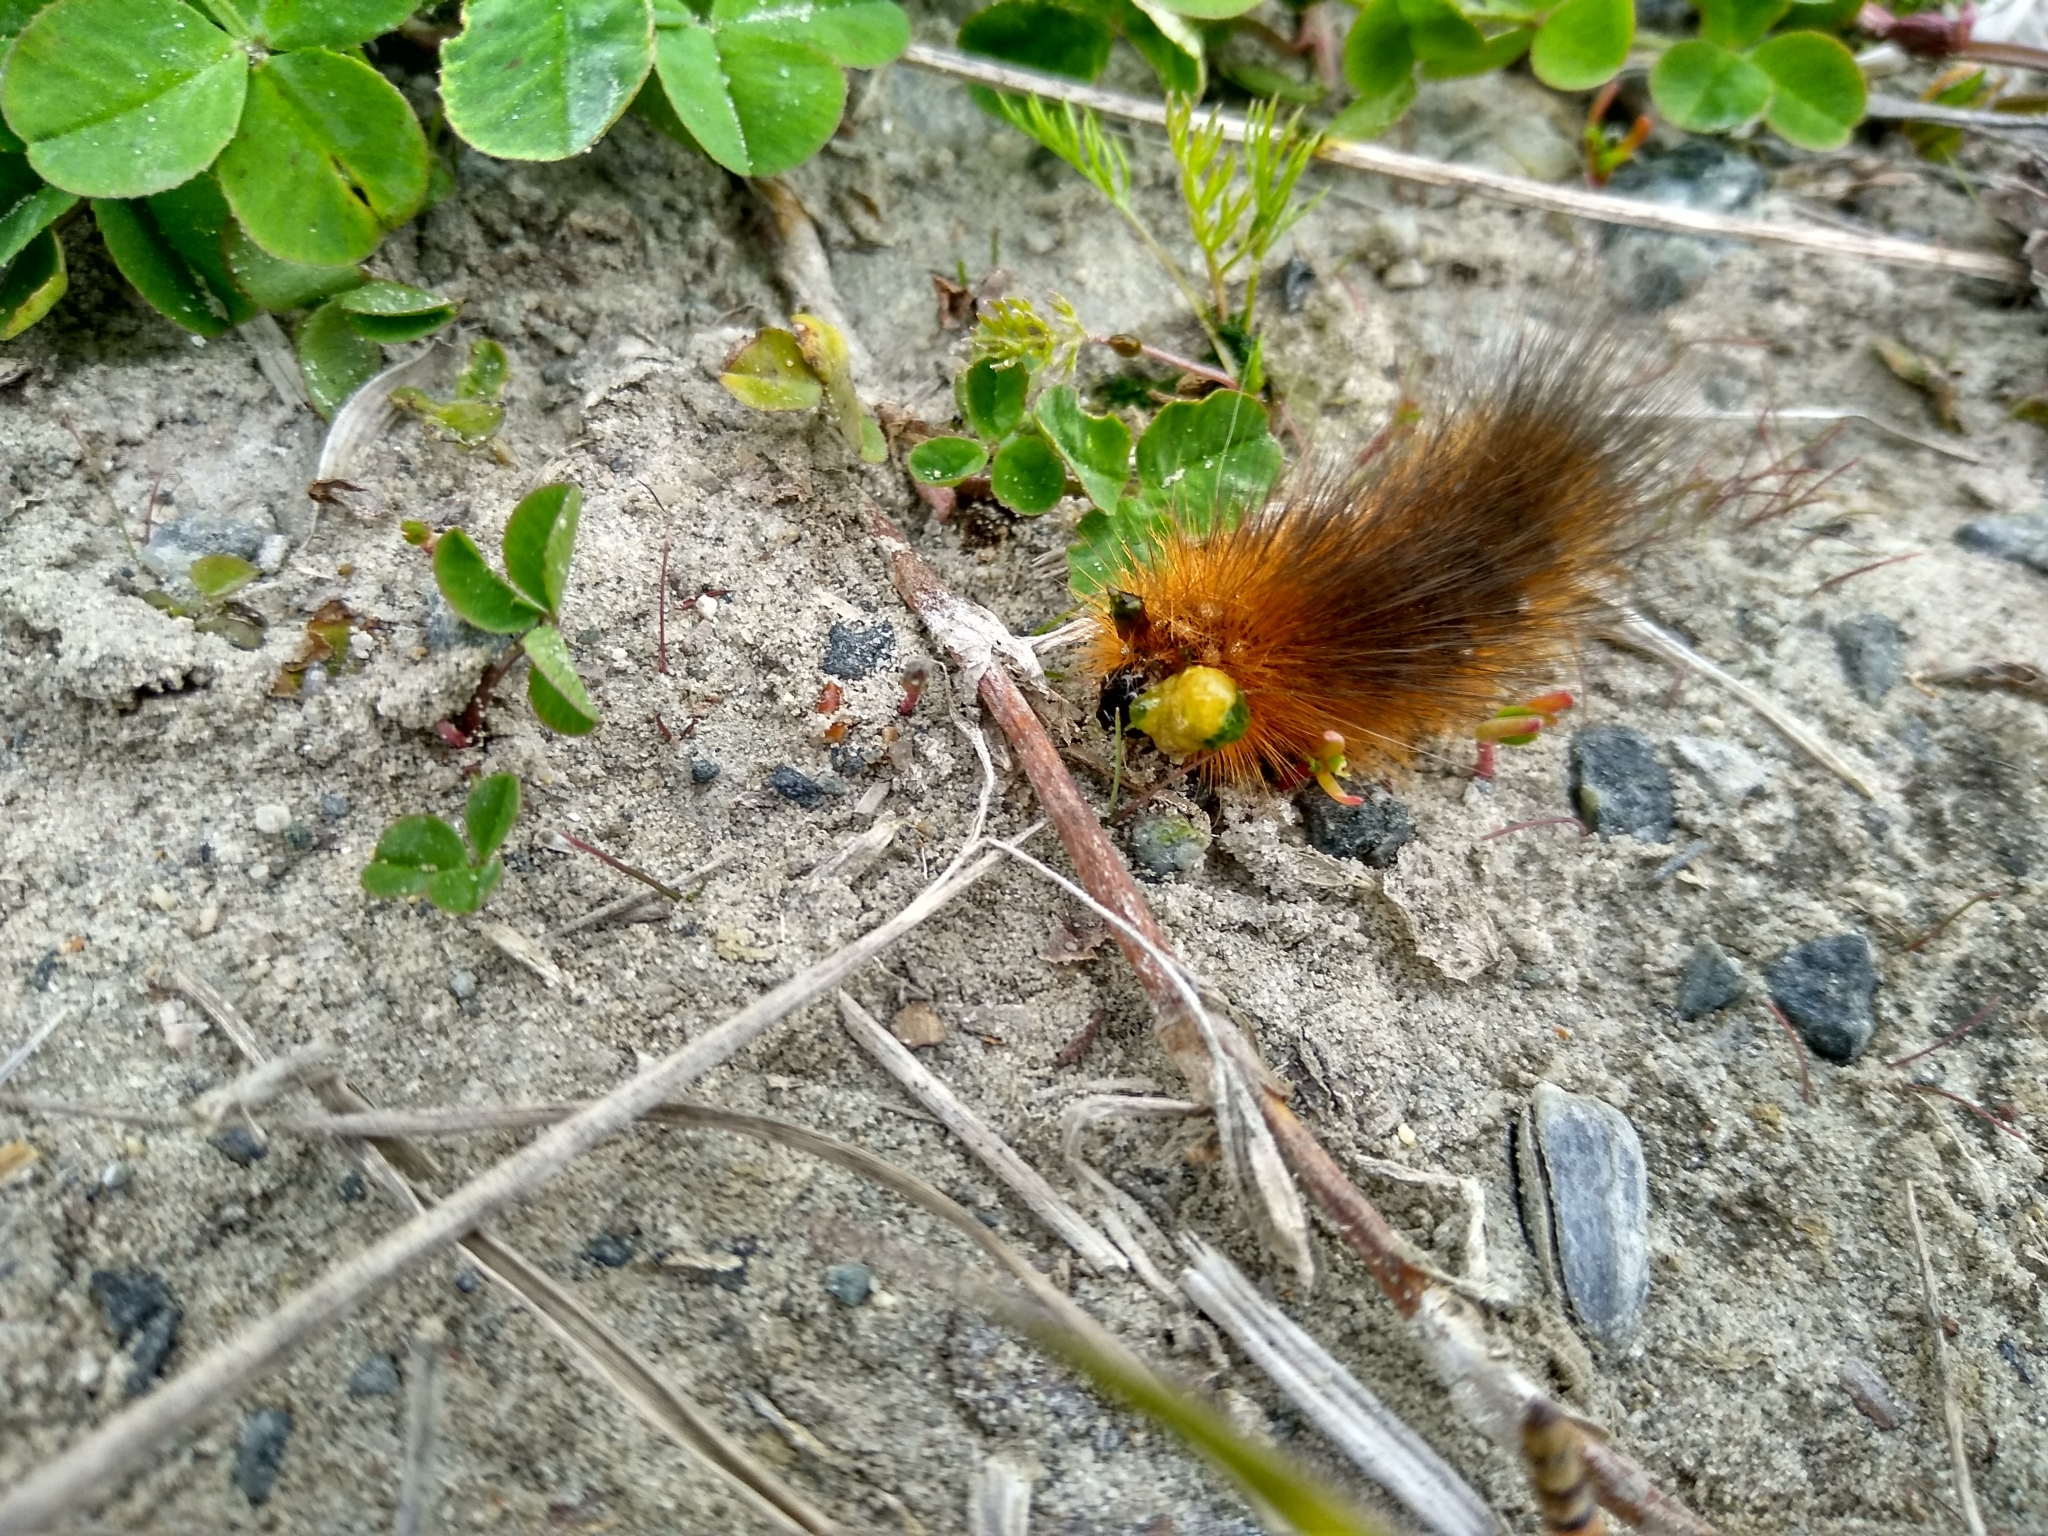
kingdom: Animalia
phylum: Arthropoda
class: Insecta
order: Lepidoptera
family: Erebidae
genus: Arctia
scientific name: Arctia caja
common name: Garden tiger
